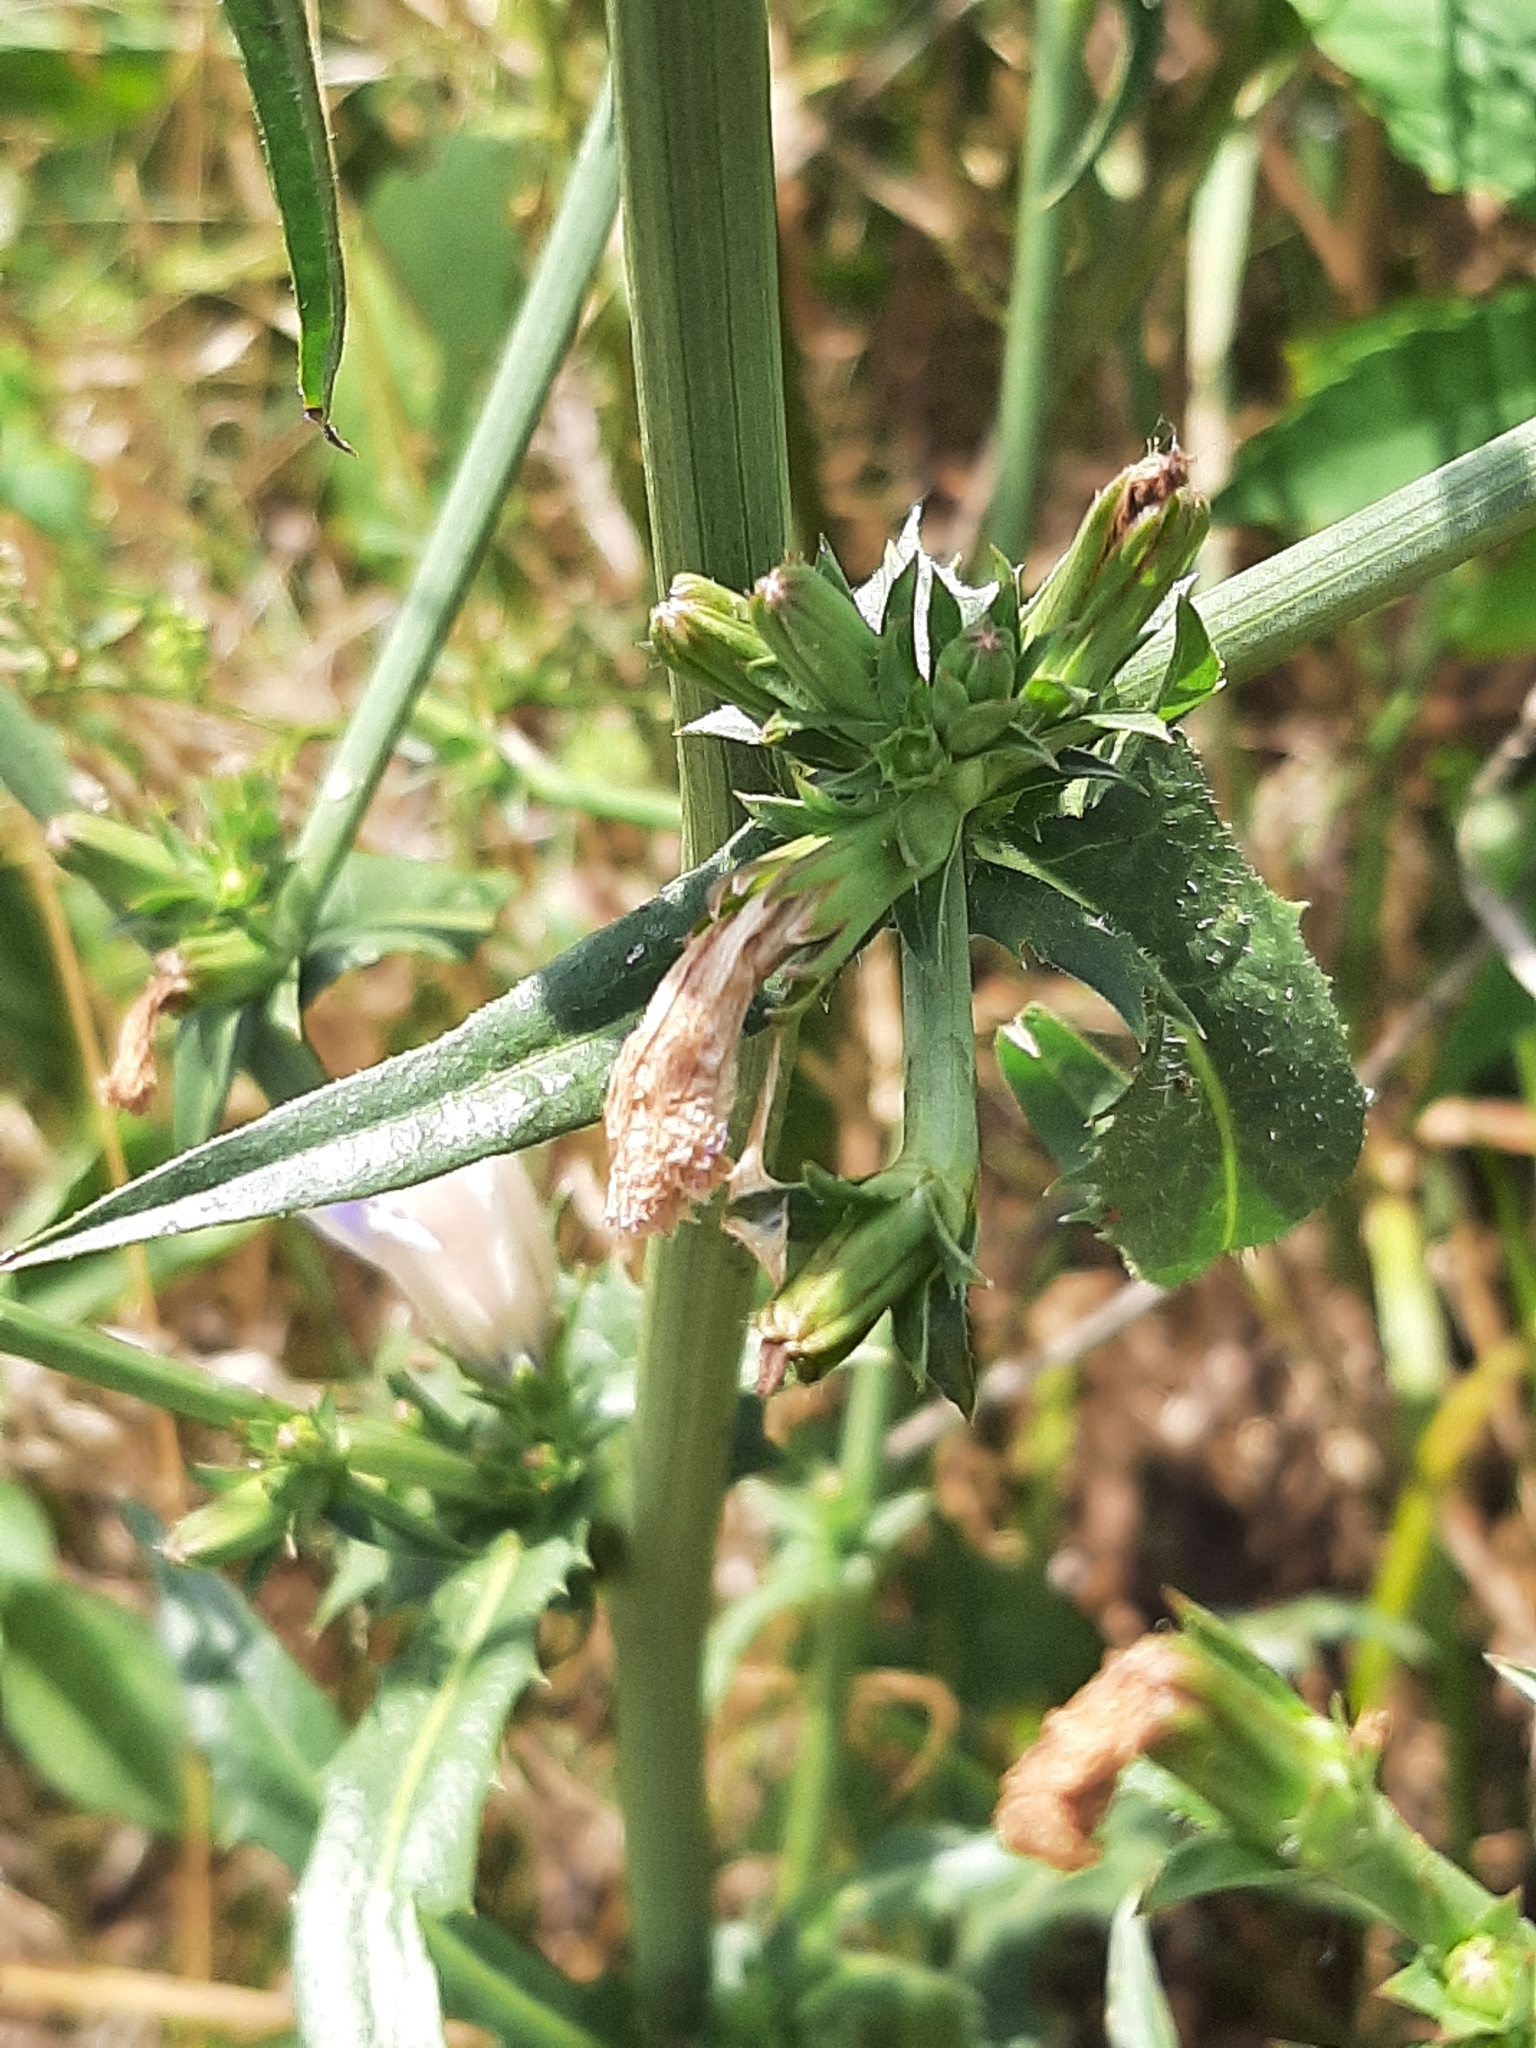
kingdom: Plantae
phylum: Tracheophyta
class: Magnoliopsida
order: Asterales
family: Asteraceae
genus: Cichorium
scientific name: Cichorium intybus
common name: Chicory
